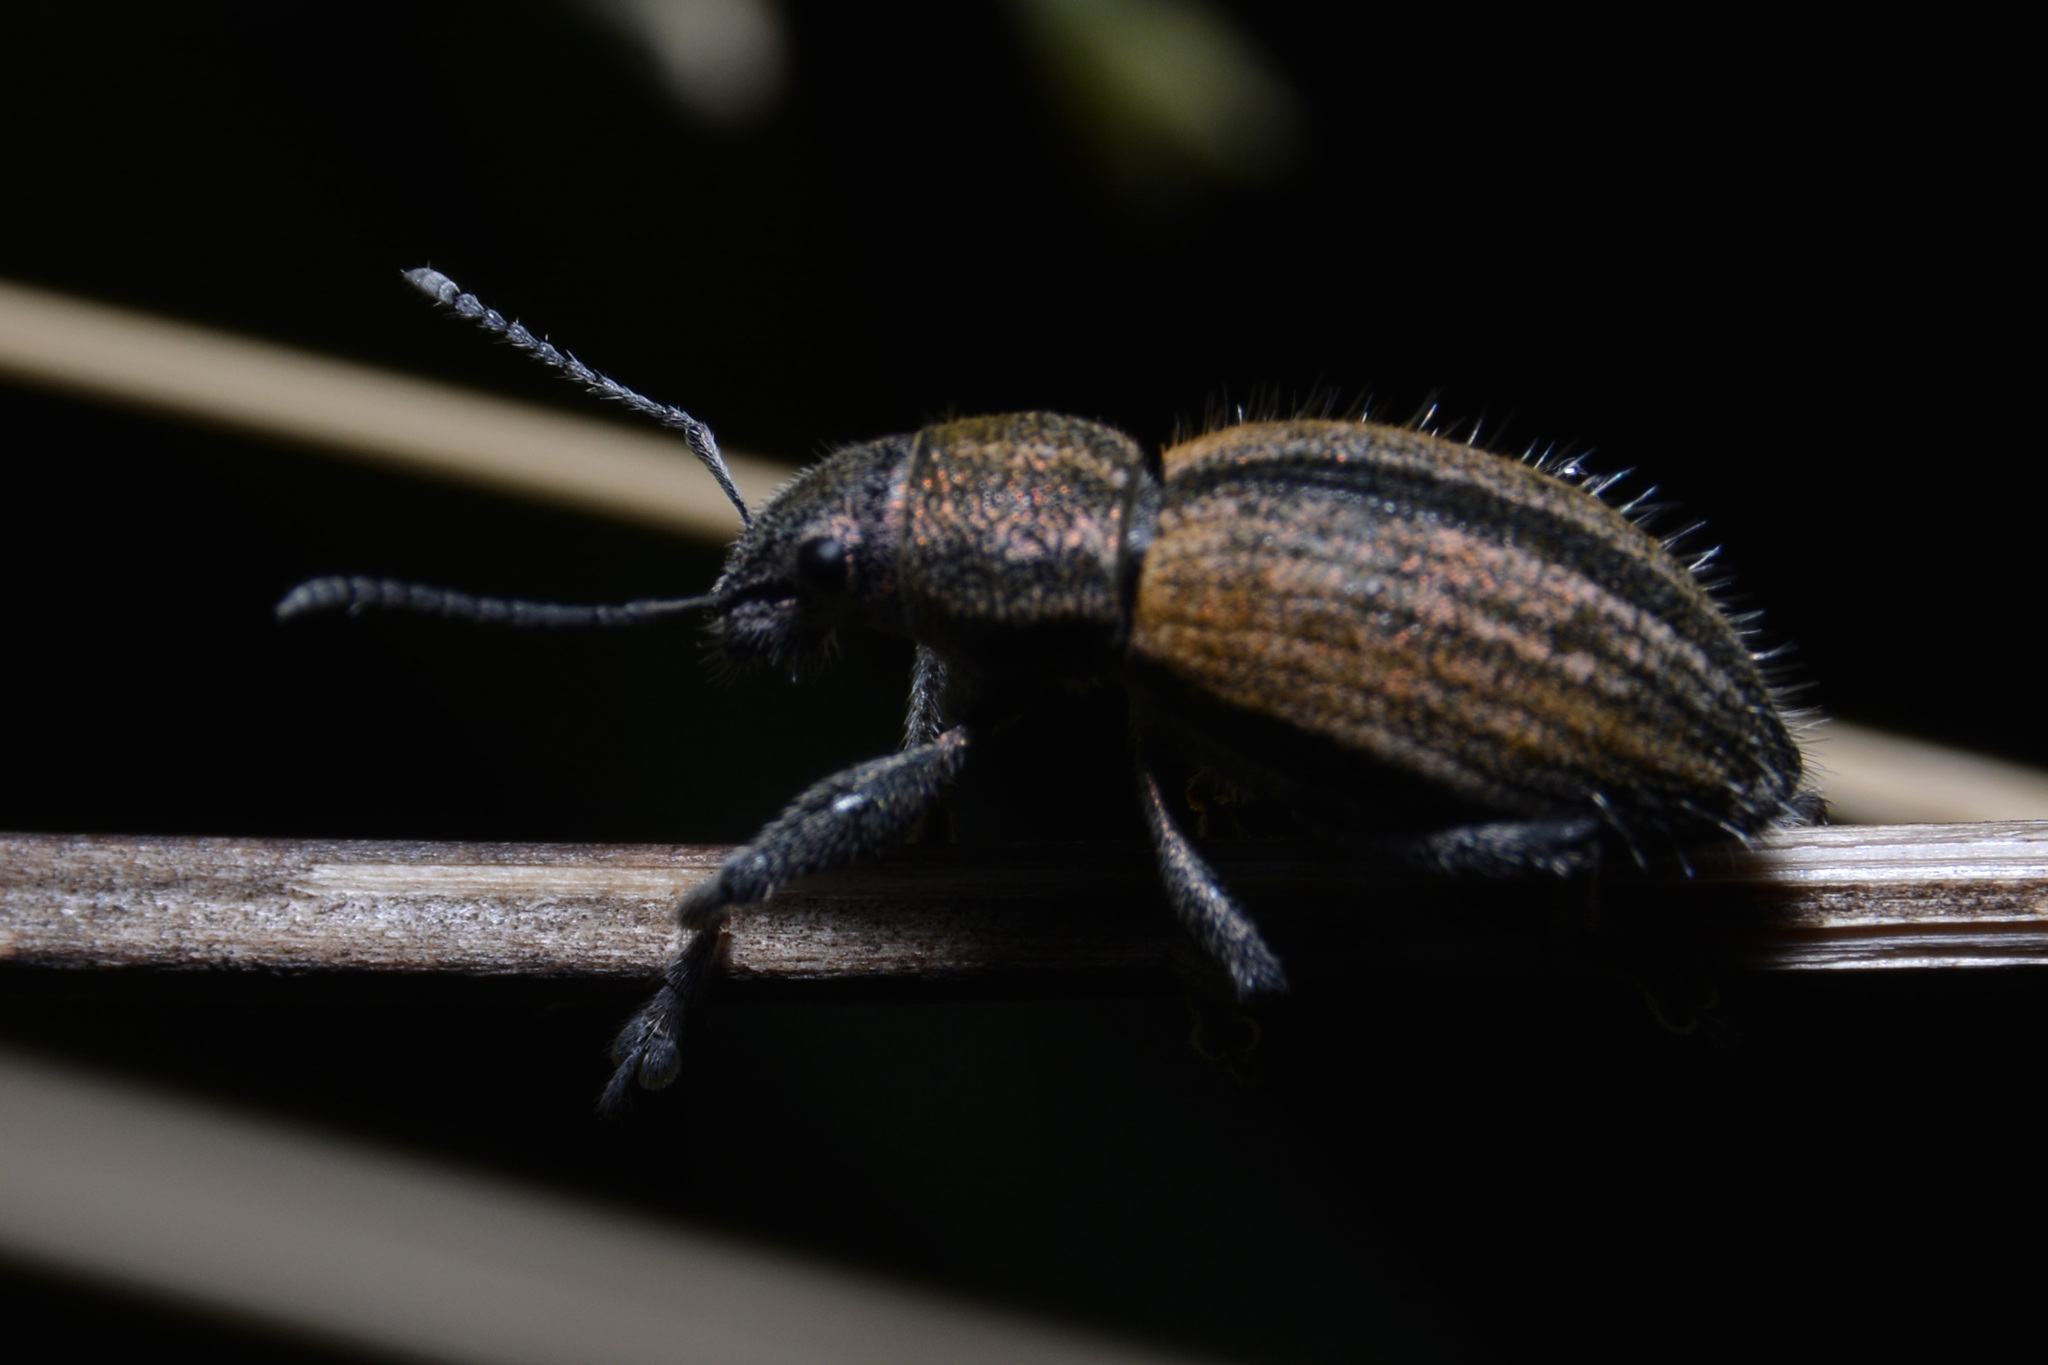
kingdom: Animalia
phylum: Arthropoda
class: Insecta
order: Coleoptera
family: Curculionidae
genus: Naupactus
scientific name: Naupactus verecundus
